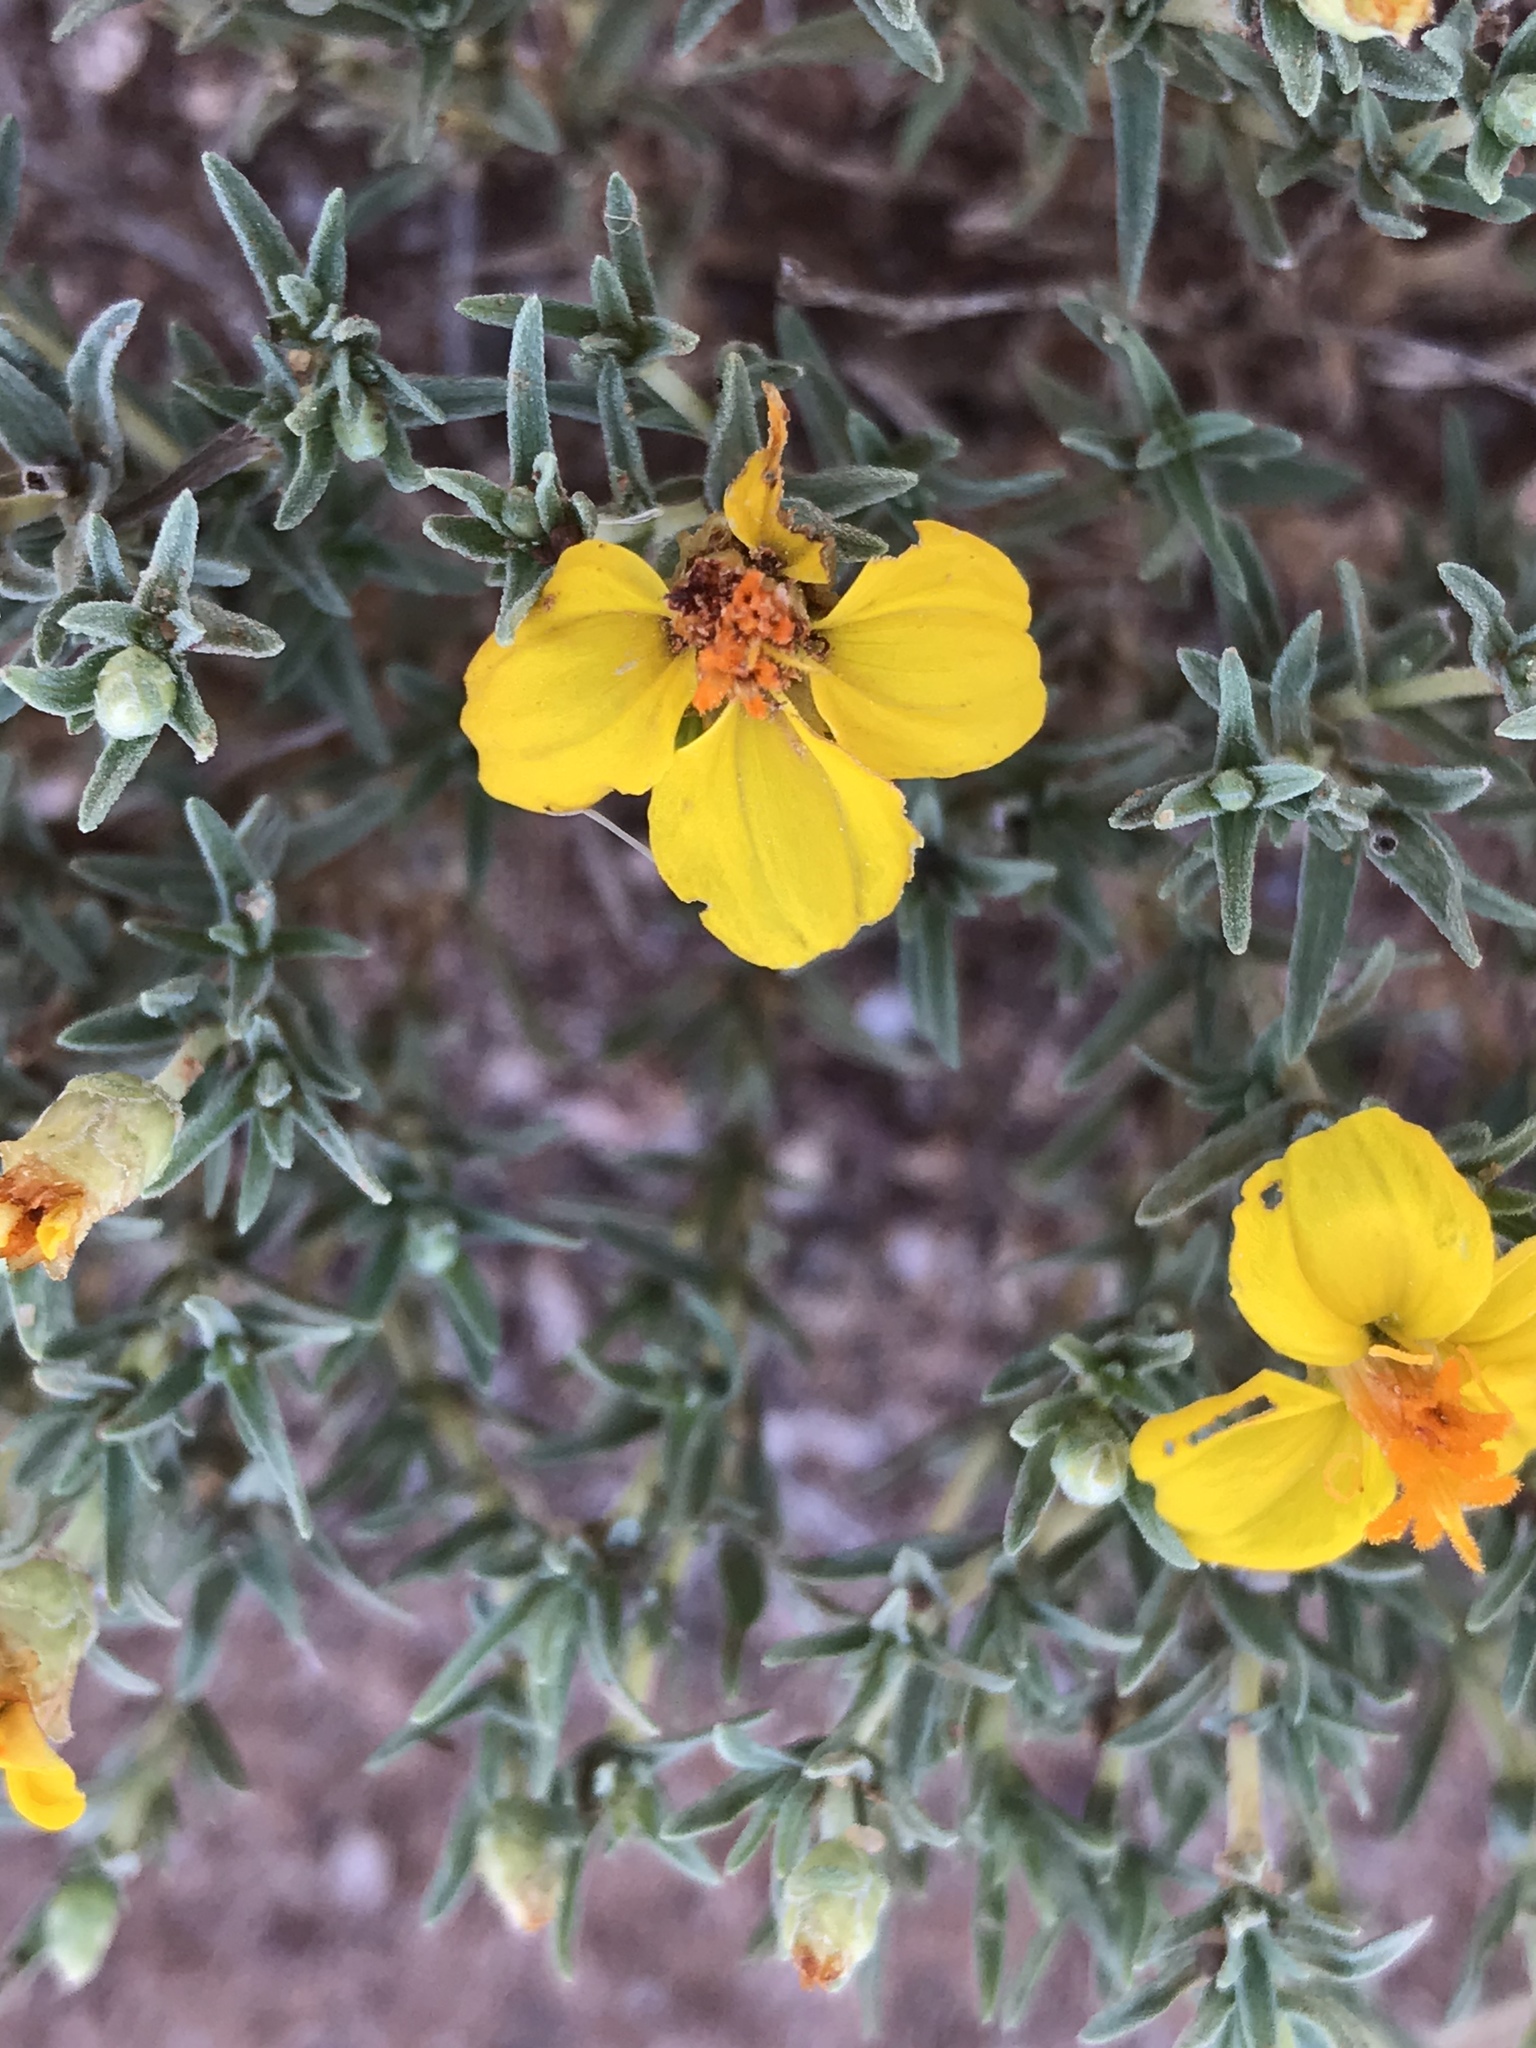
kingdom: Plantae
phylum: Tracheophyta
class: Magnoliopsida
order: Asterales
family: Asteraceae
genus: Zinnia
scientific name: Zinnia grandiflora
